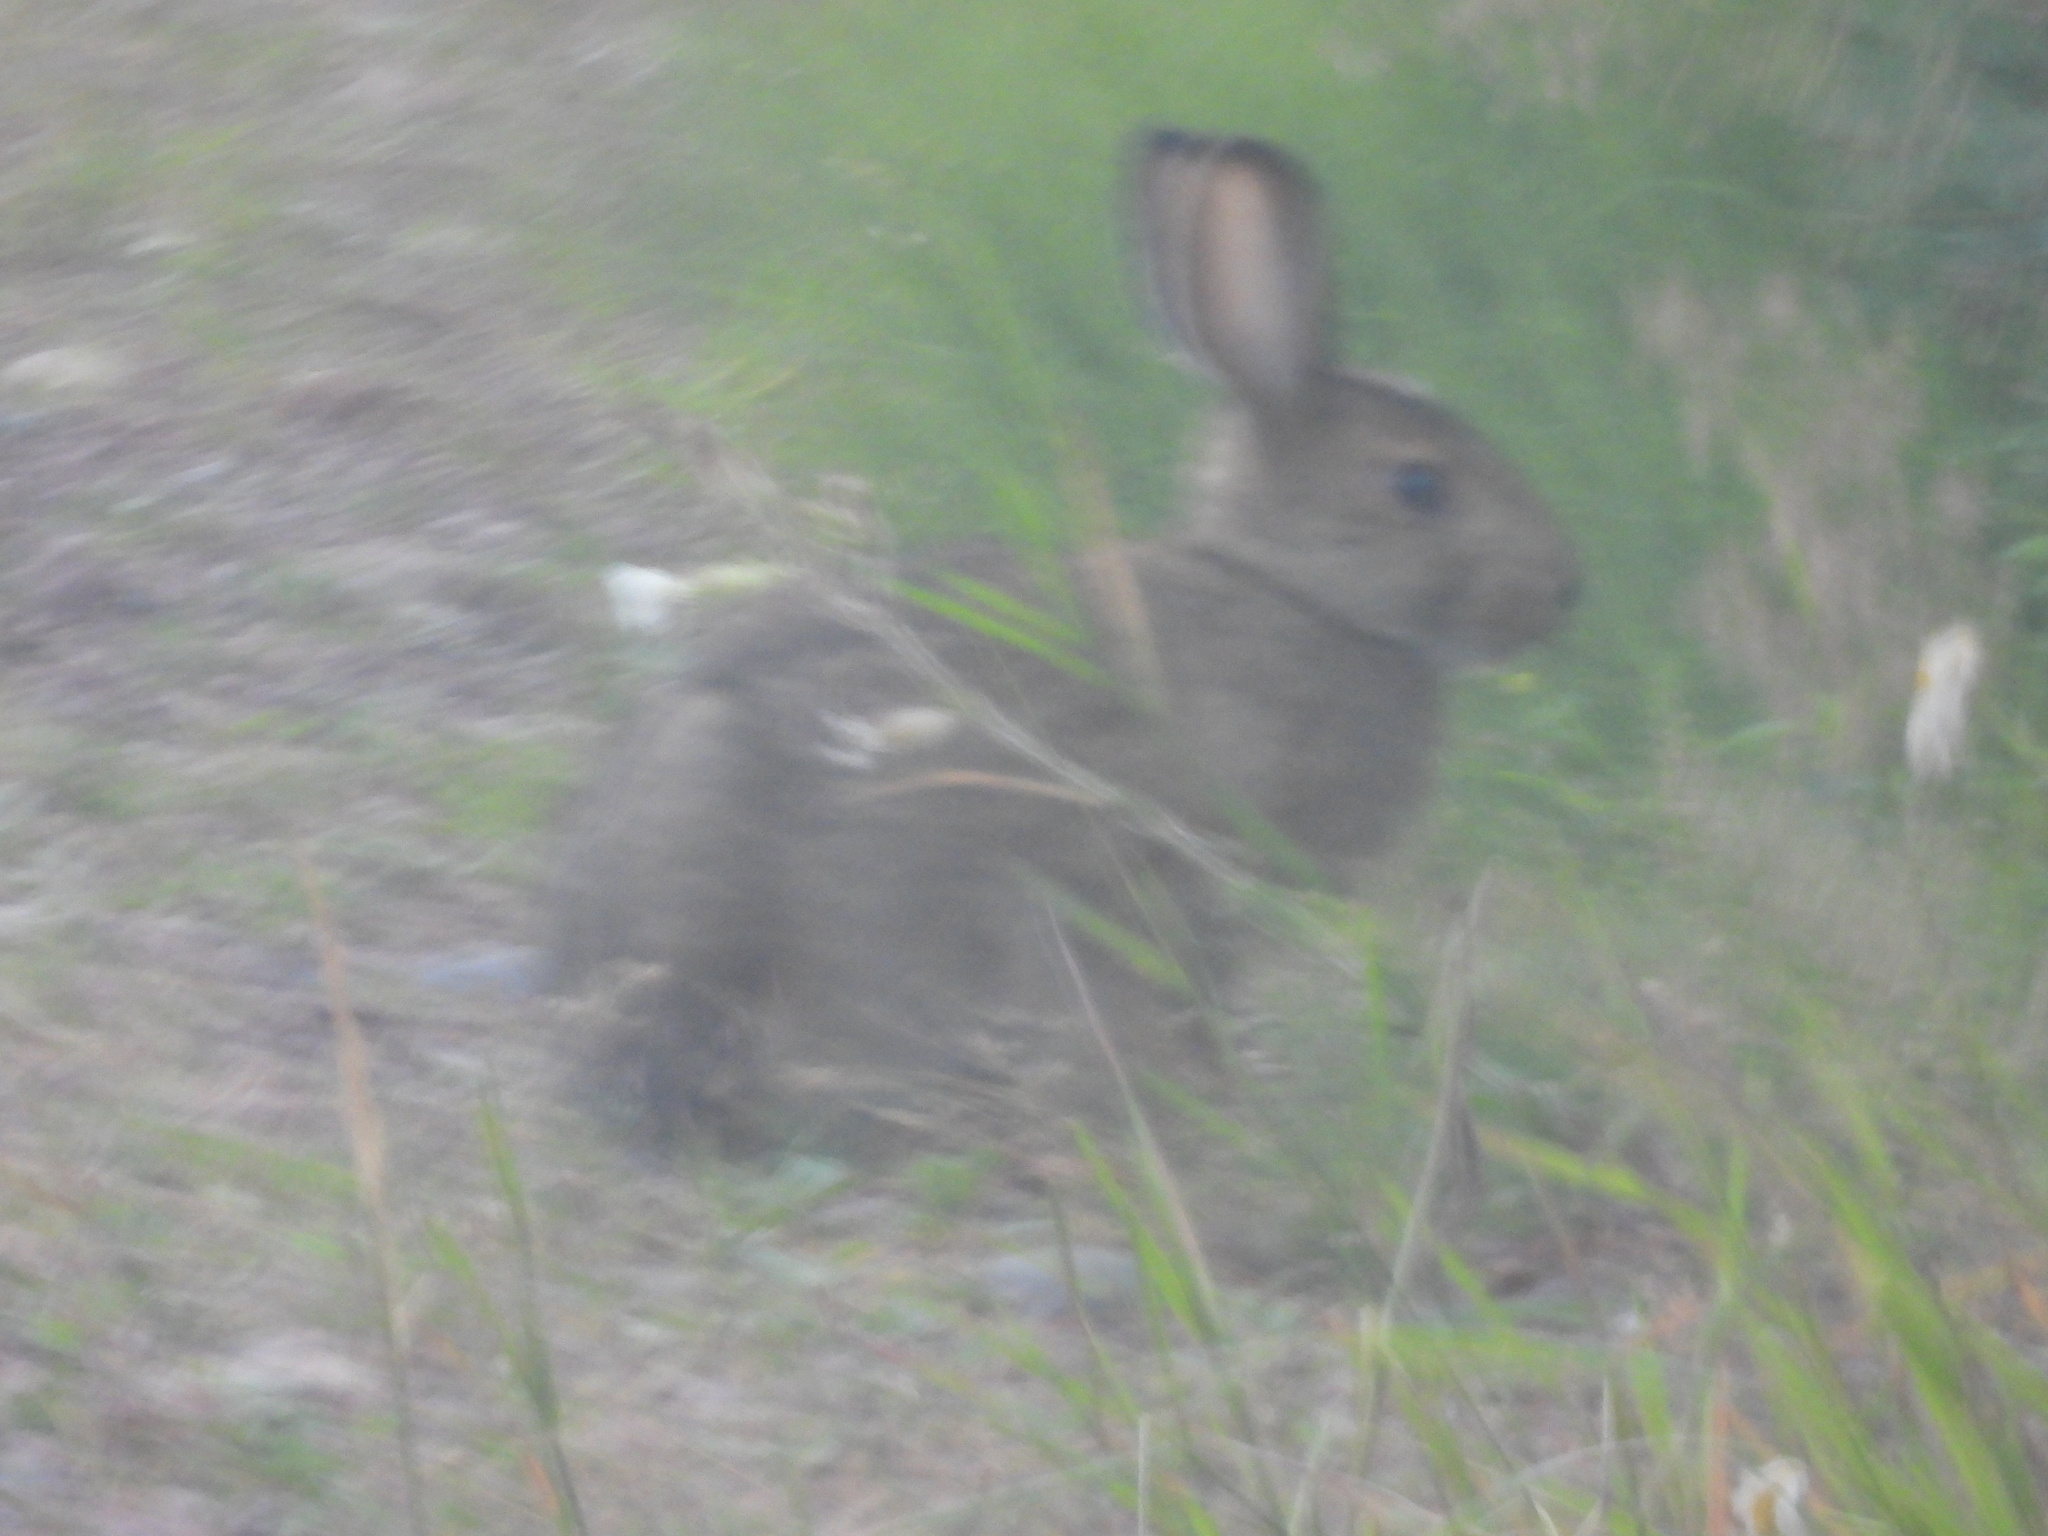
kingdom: Animalia
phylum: Chordata
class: Mammalia
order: Lagomorpha
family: Leporidae
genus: Lepus
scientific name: Lepus americanus
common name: Snowshoe hare
